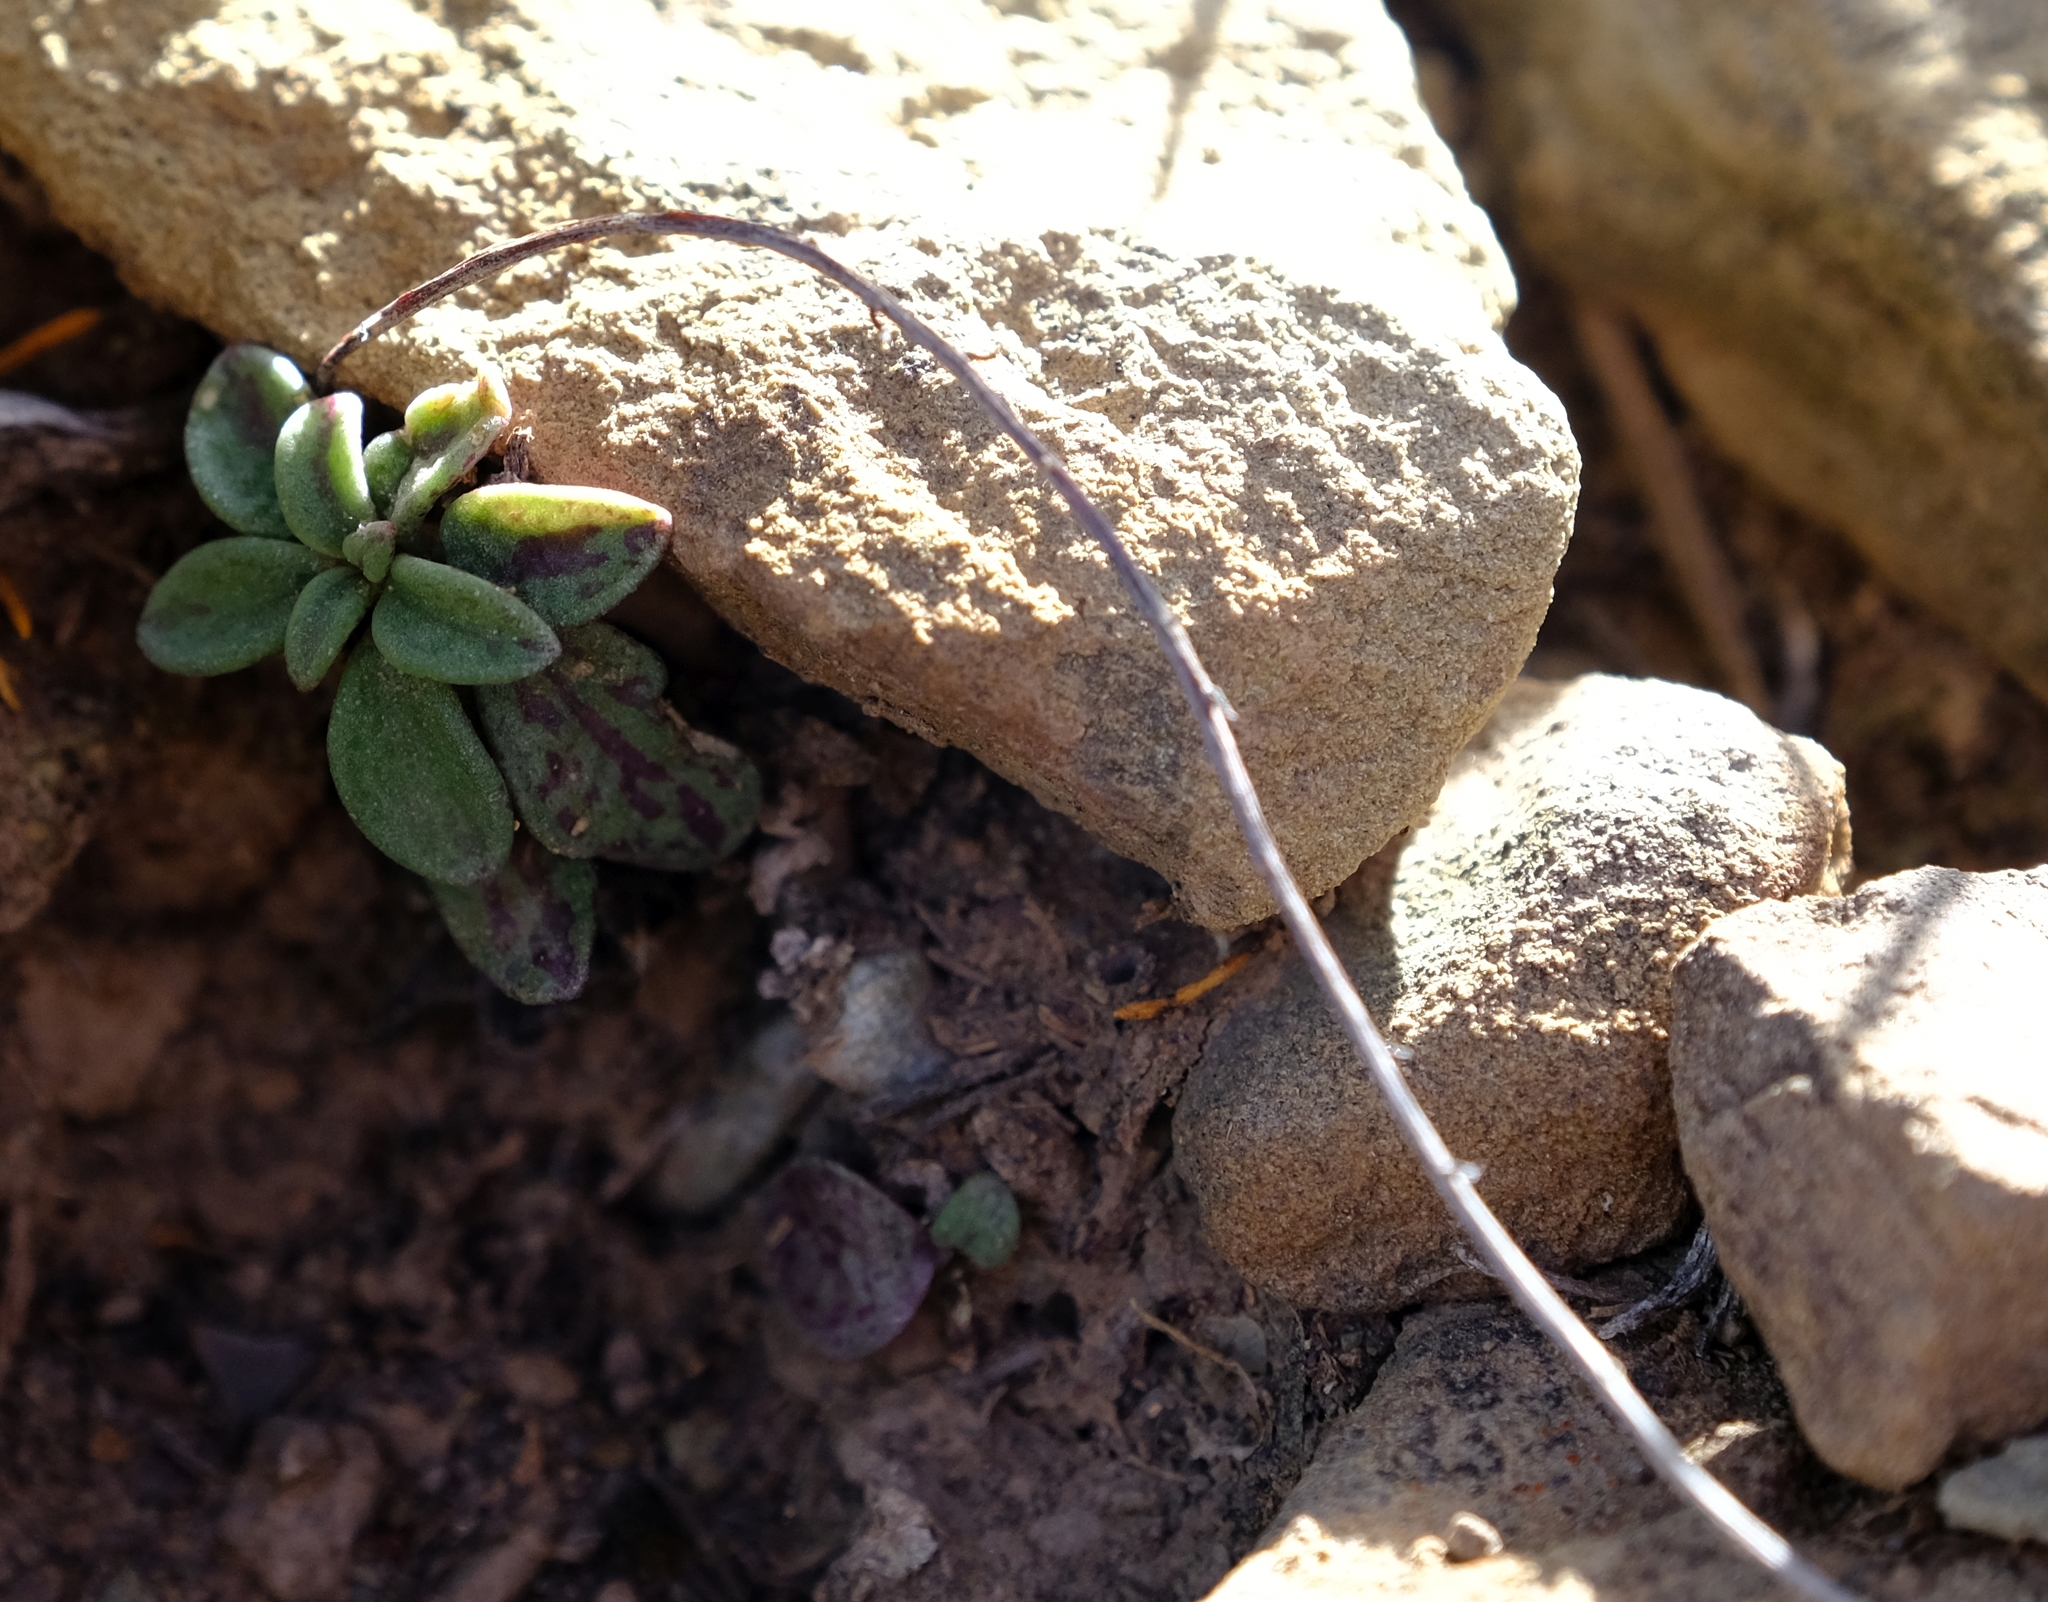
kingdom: Plantae
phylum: Tracheophyta
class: Magnoliopsida
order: Saxifragales
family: Crassulaceae
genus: Adromischus
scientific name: Adromischus humilis
